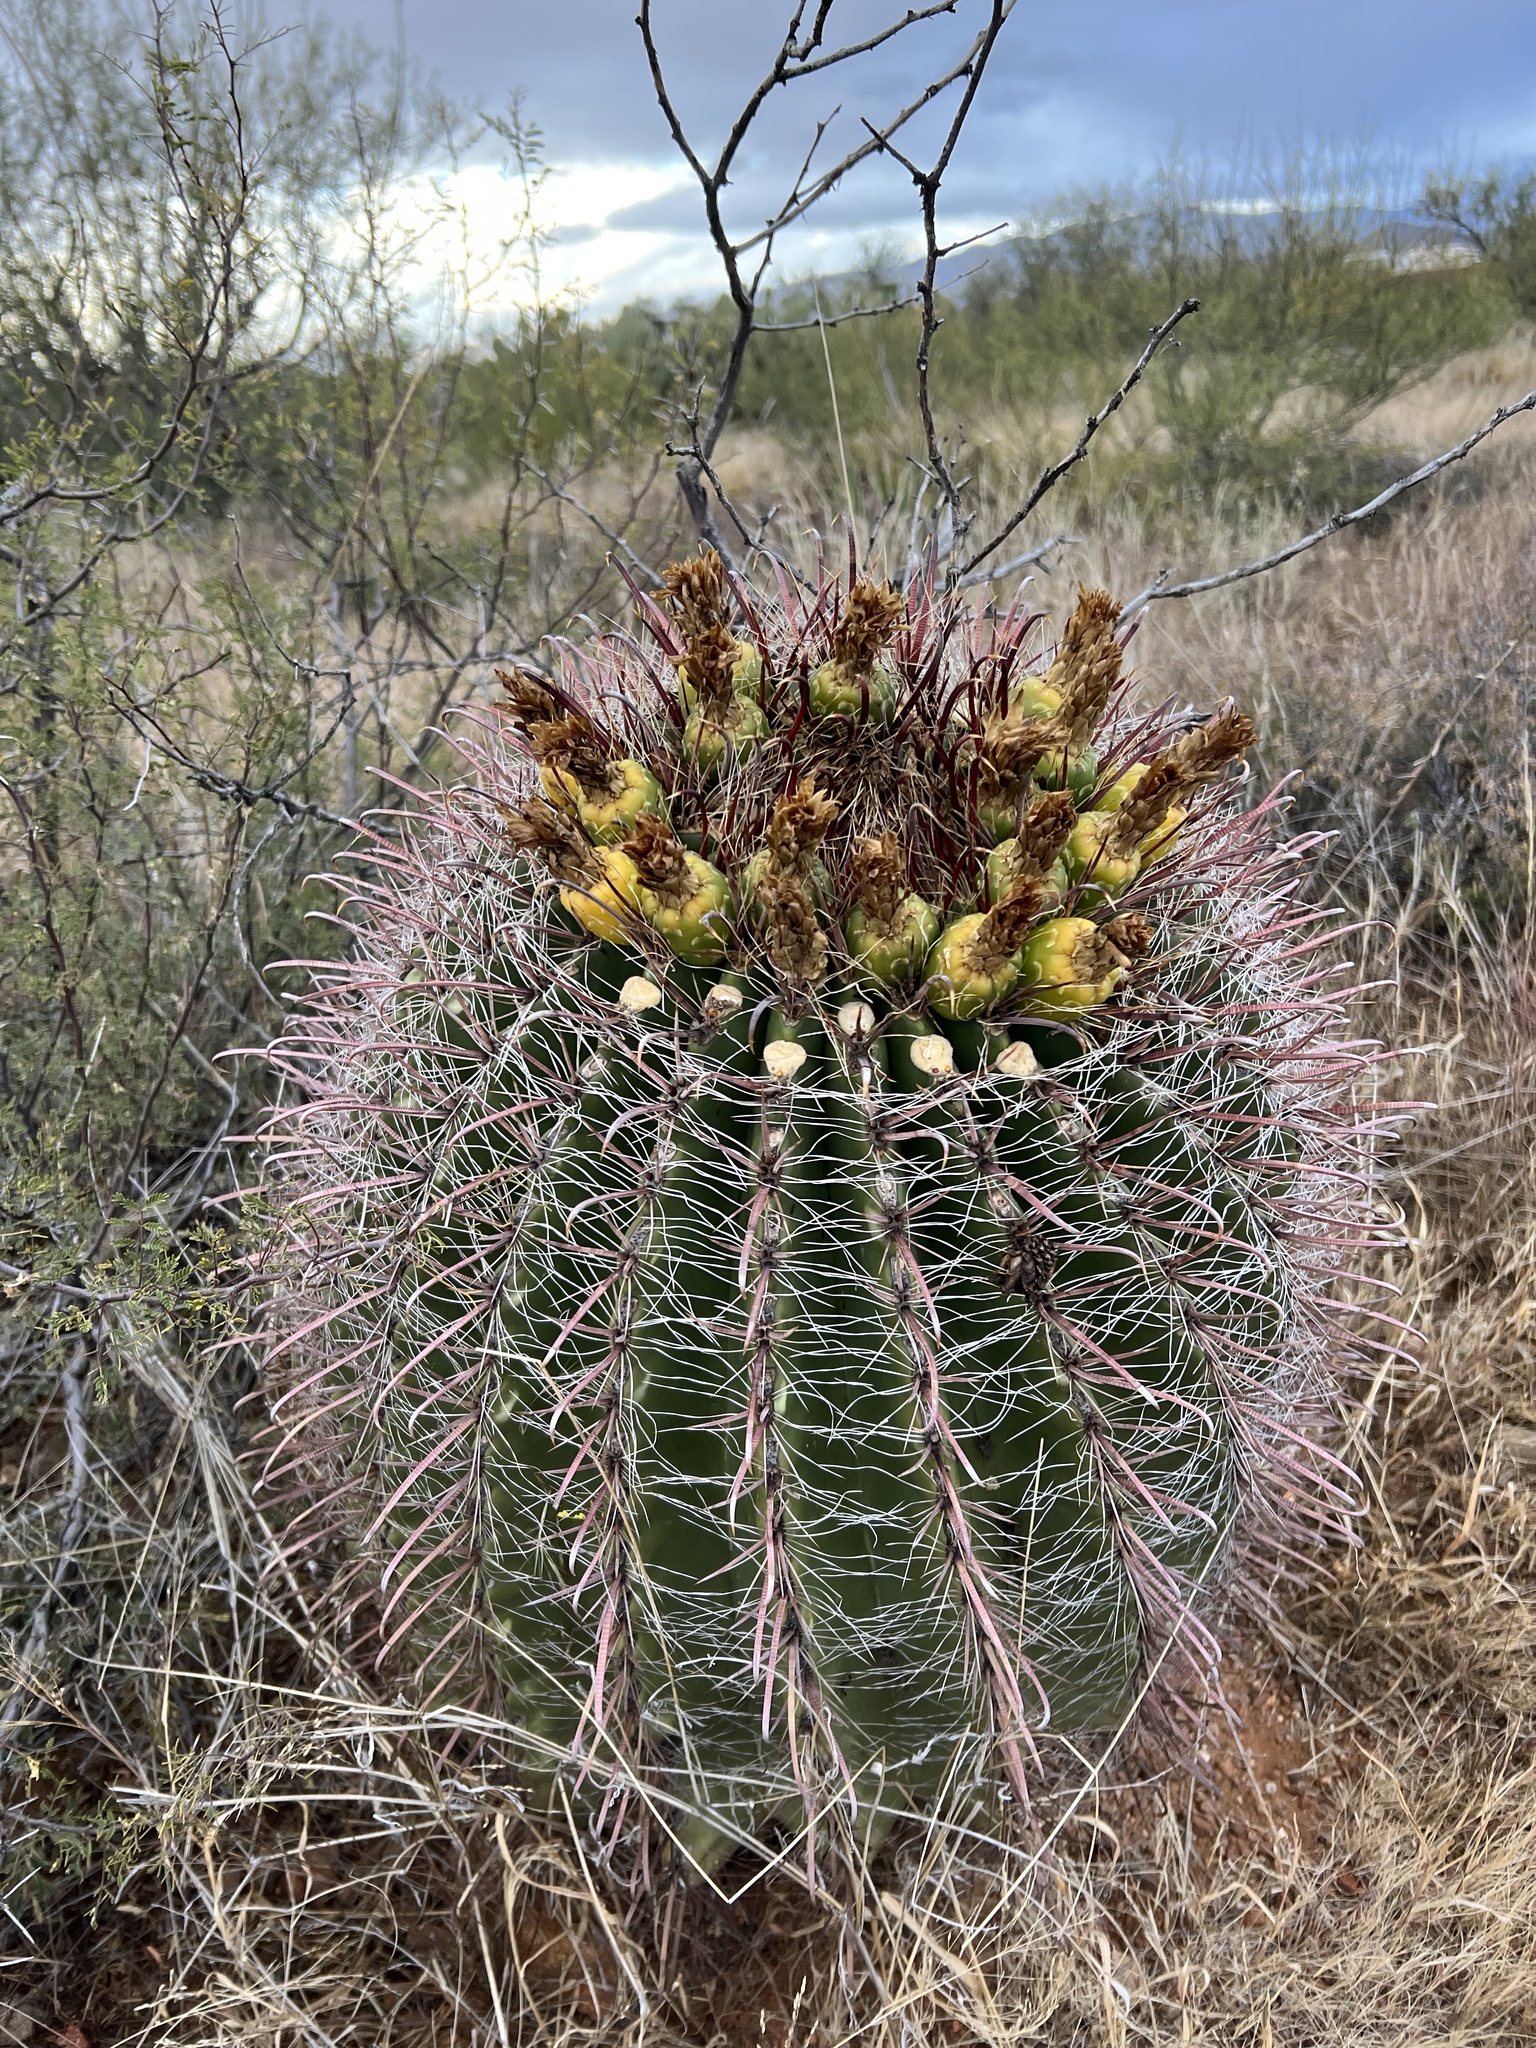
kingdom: Plantae
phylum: Tracheophyta
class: Magnoliopsida
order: Caryophyllales
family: Cactaceae
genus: Ferocactus
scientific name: Ferocactus wislizeni
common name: Candy barrel cactus
